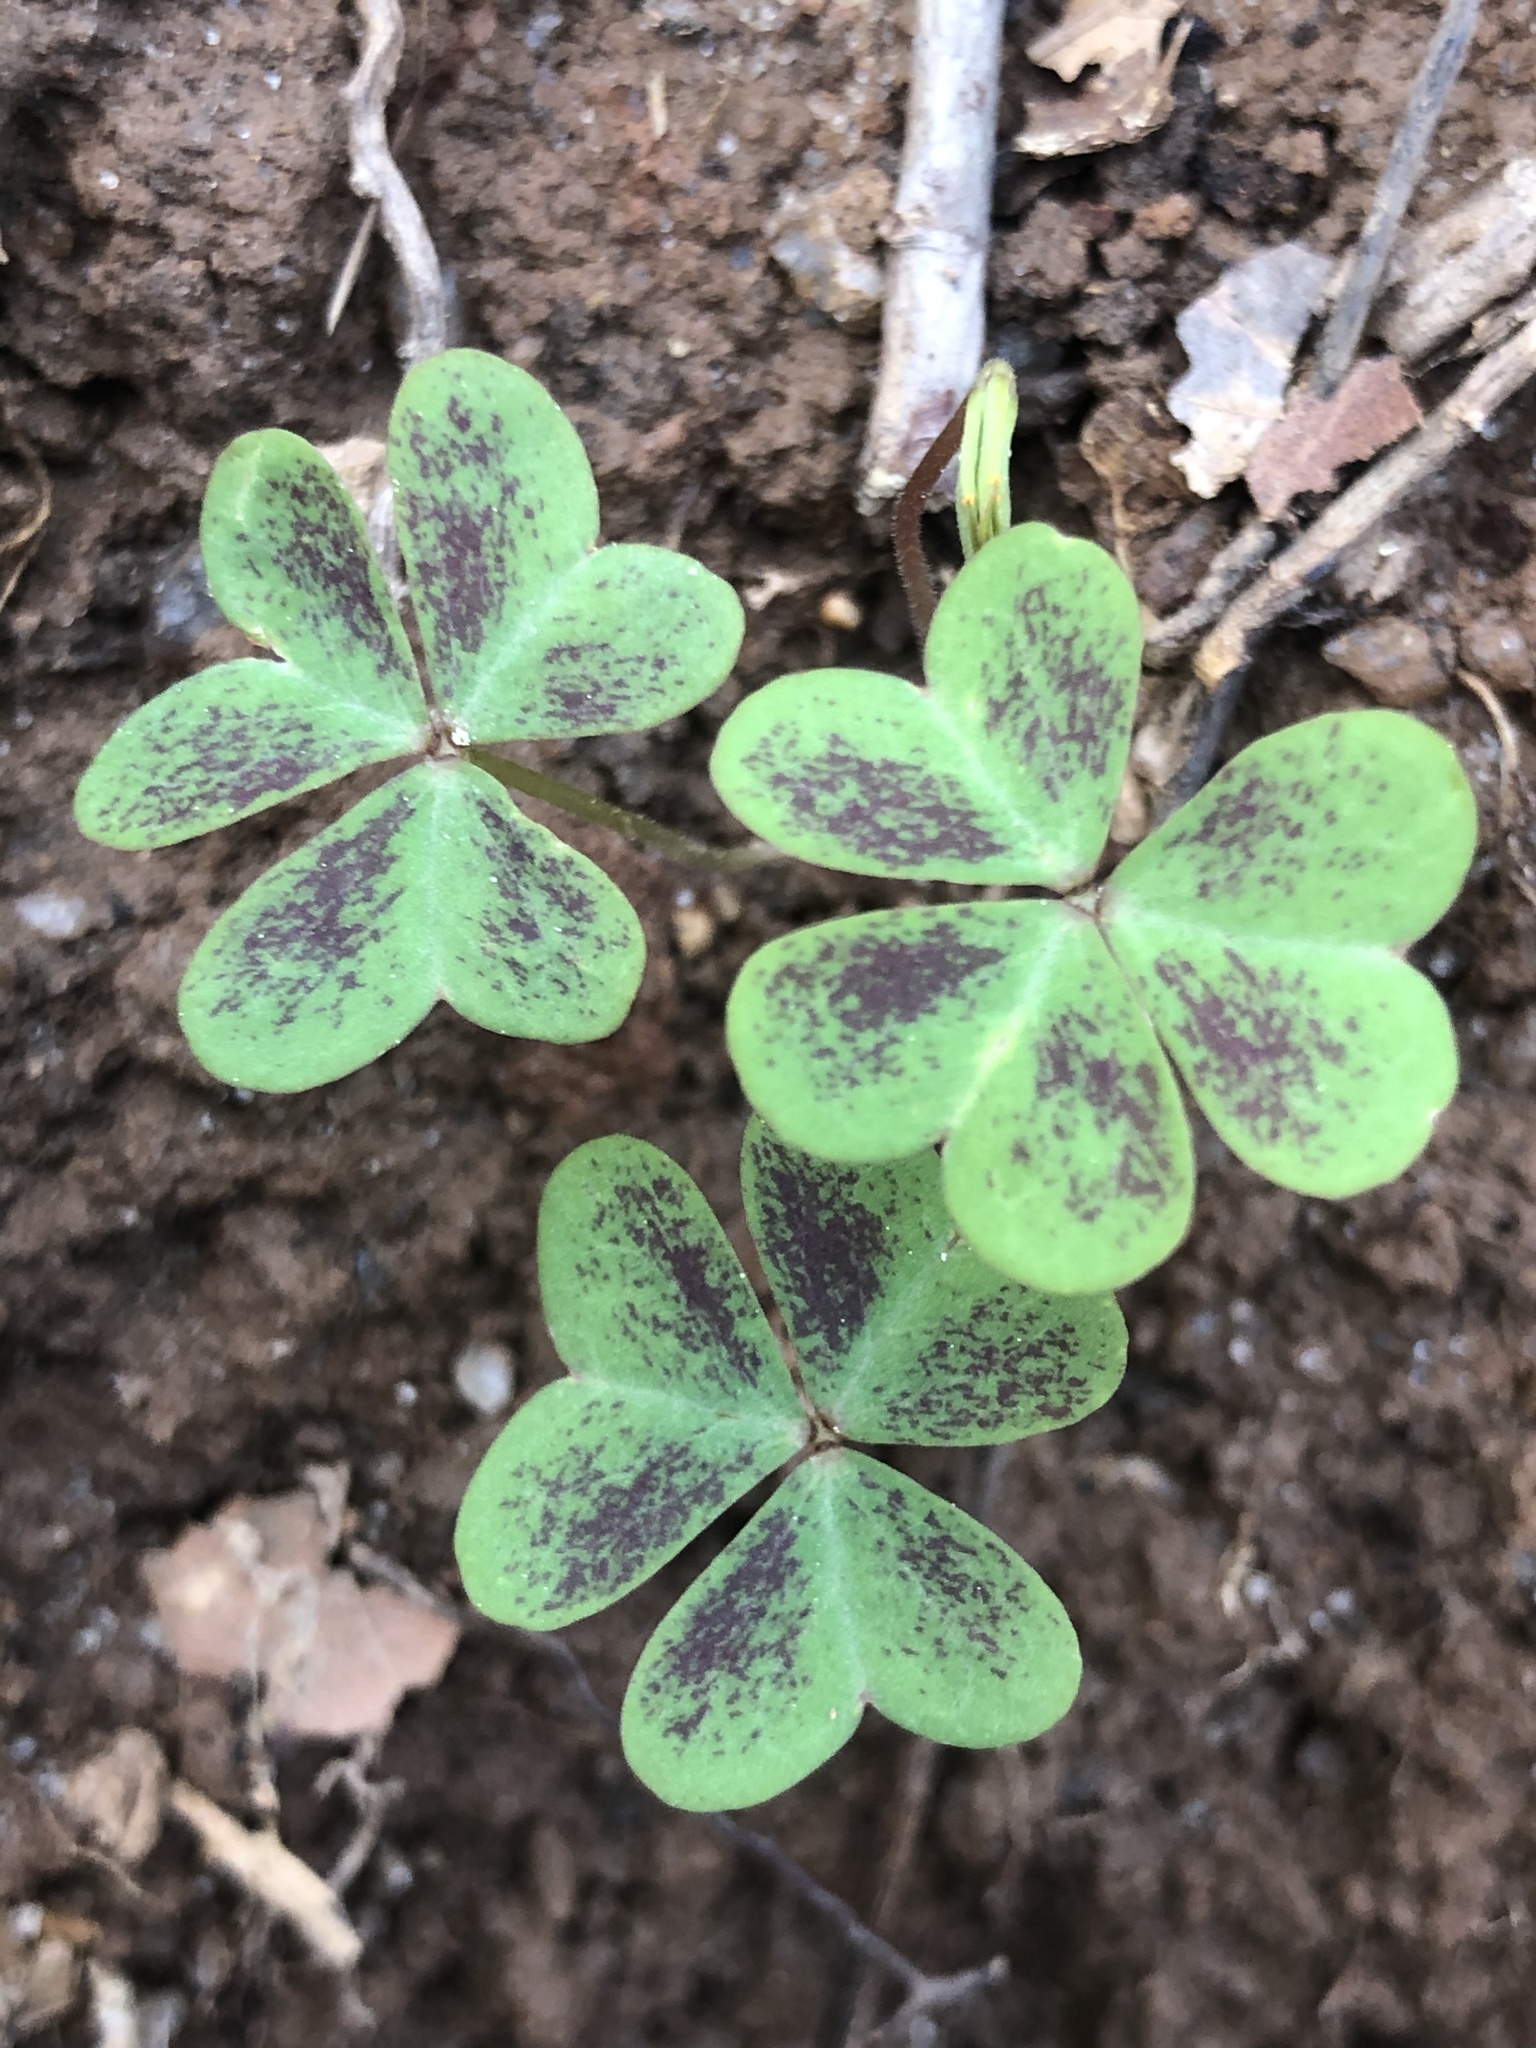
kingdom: Plantae
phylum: Tracheophyta
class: Magnoliopsida
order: Oxalidales
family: Oxalidaceae
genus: Oxalis
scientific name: Oxalis violacea
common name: Violet wood-sorrel
